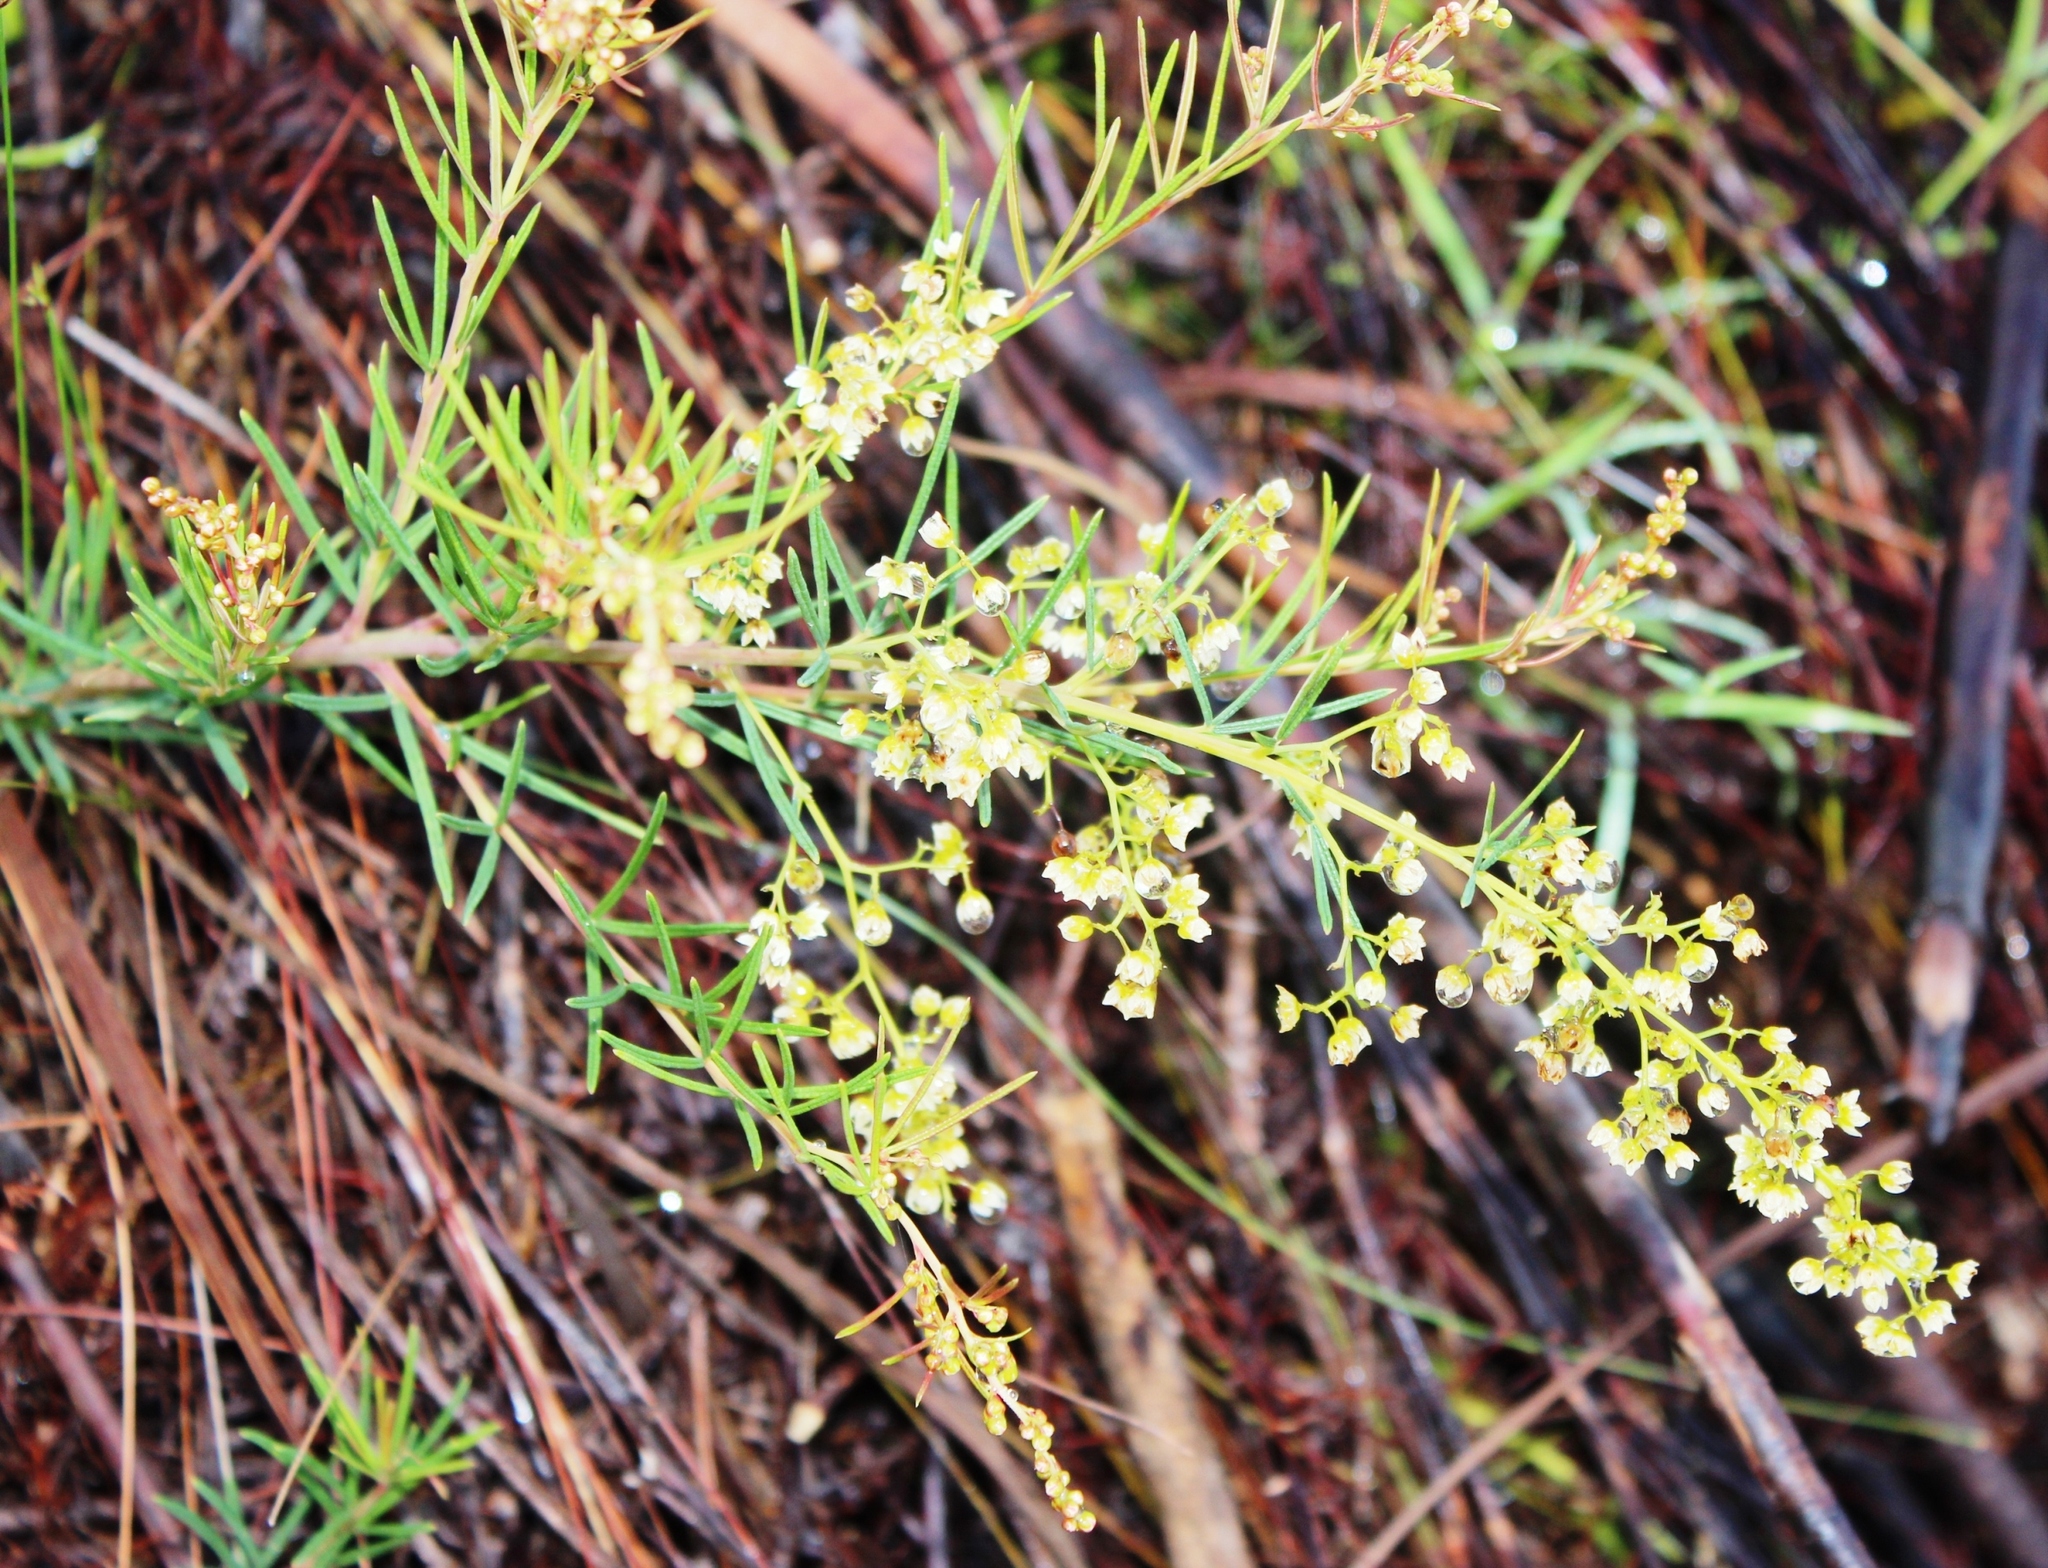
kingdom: Plantae
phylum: Tracheophyta
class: Magnoliopsida
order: Sapindales
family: Anacardiaceae
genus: Searsia
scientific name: Searsia rosmarinifolia
